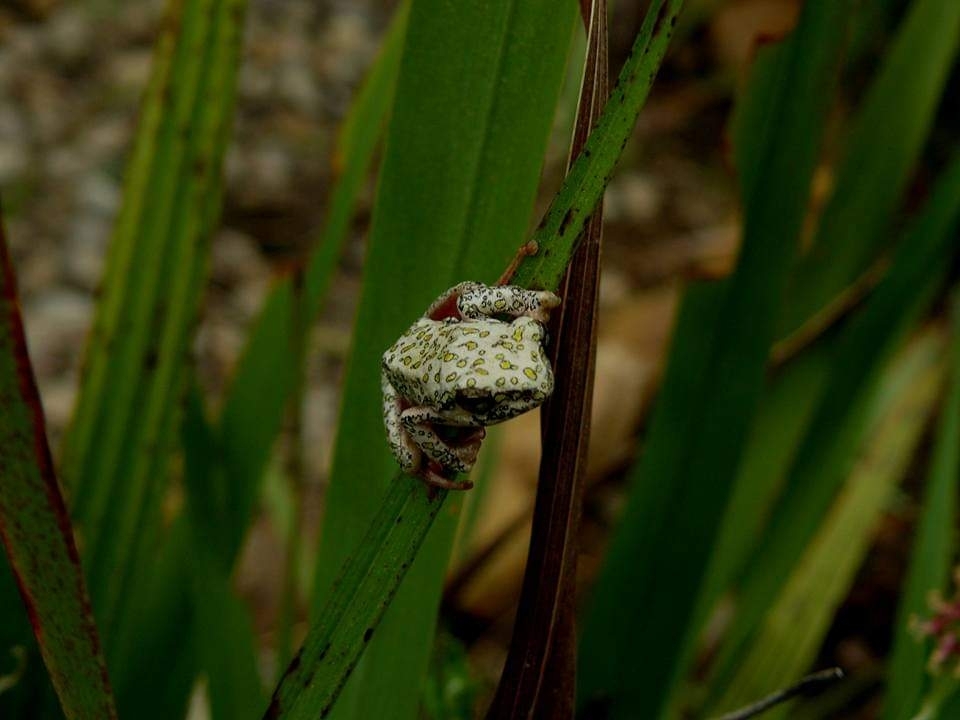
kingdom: Animalia
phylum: Chordata
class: Amphibia
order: Anura
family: Hyperoliidae
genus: Hyperolius
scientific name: Hyperolius marmoratus
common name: Painted reed frog
